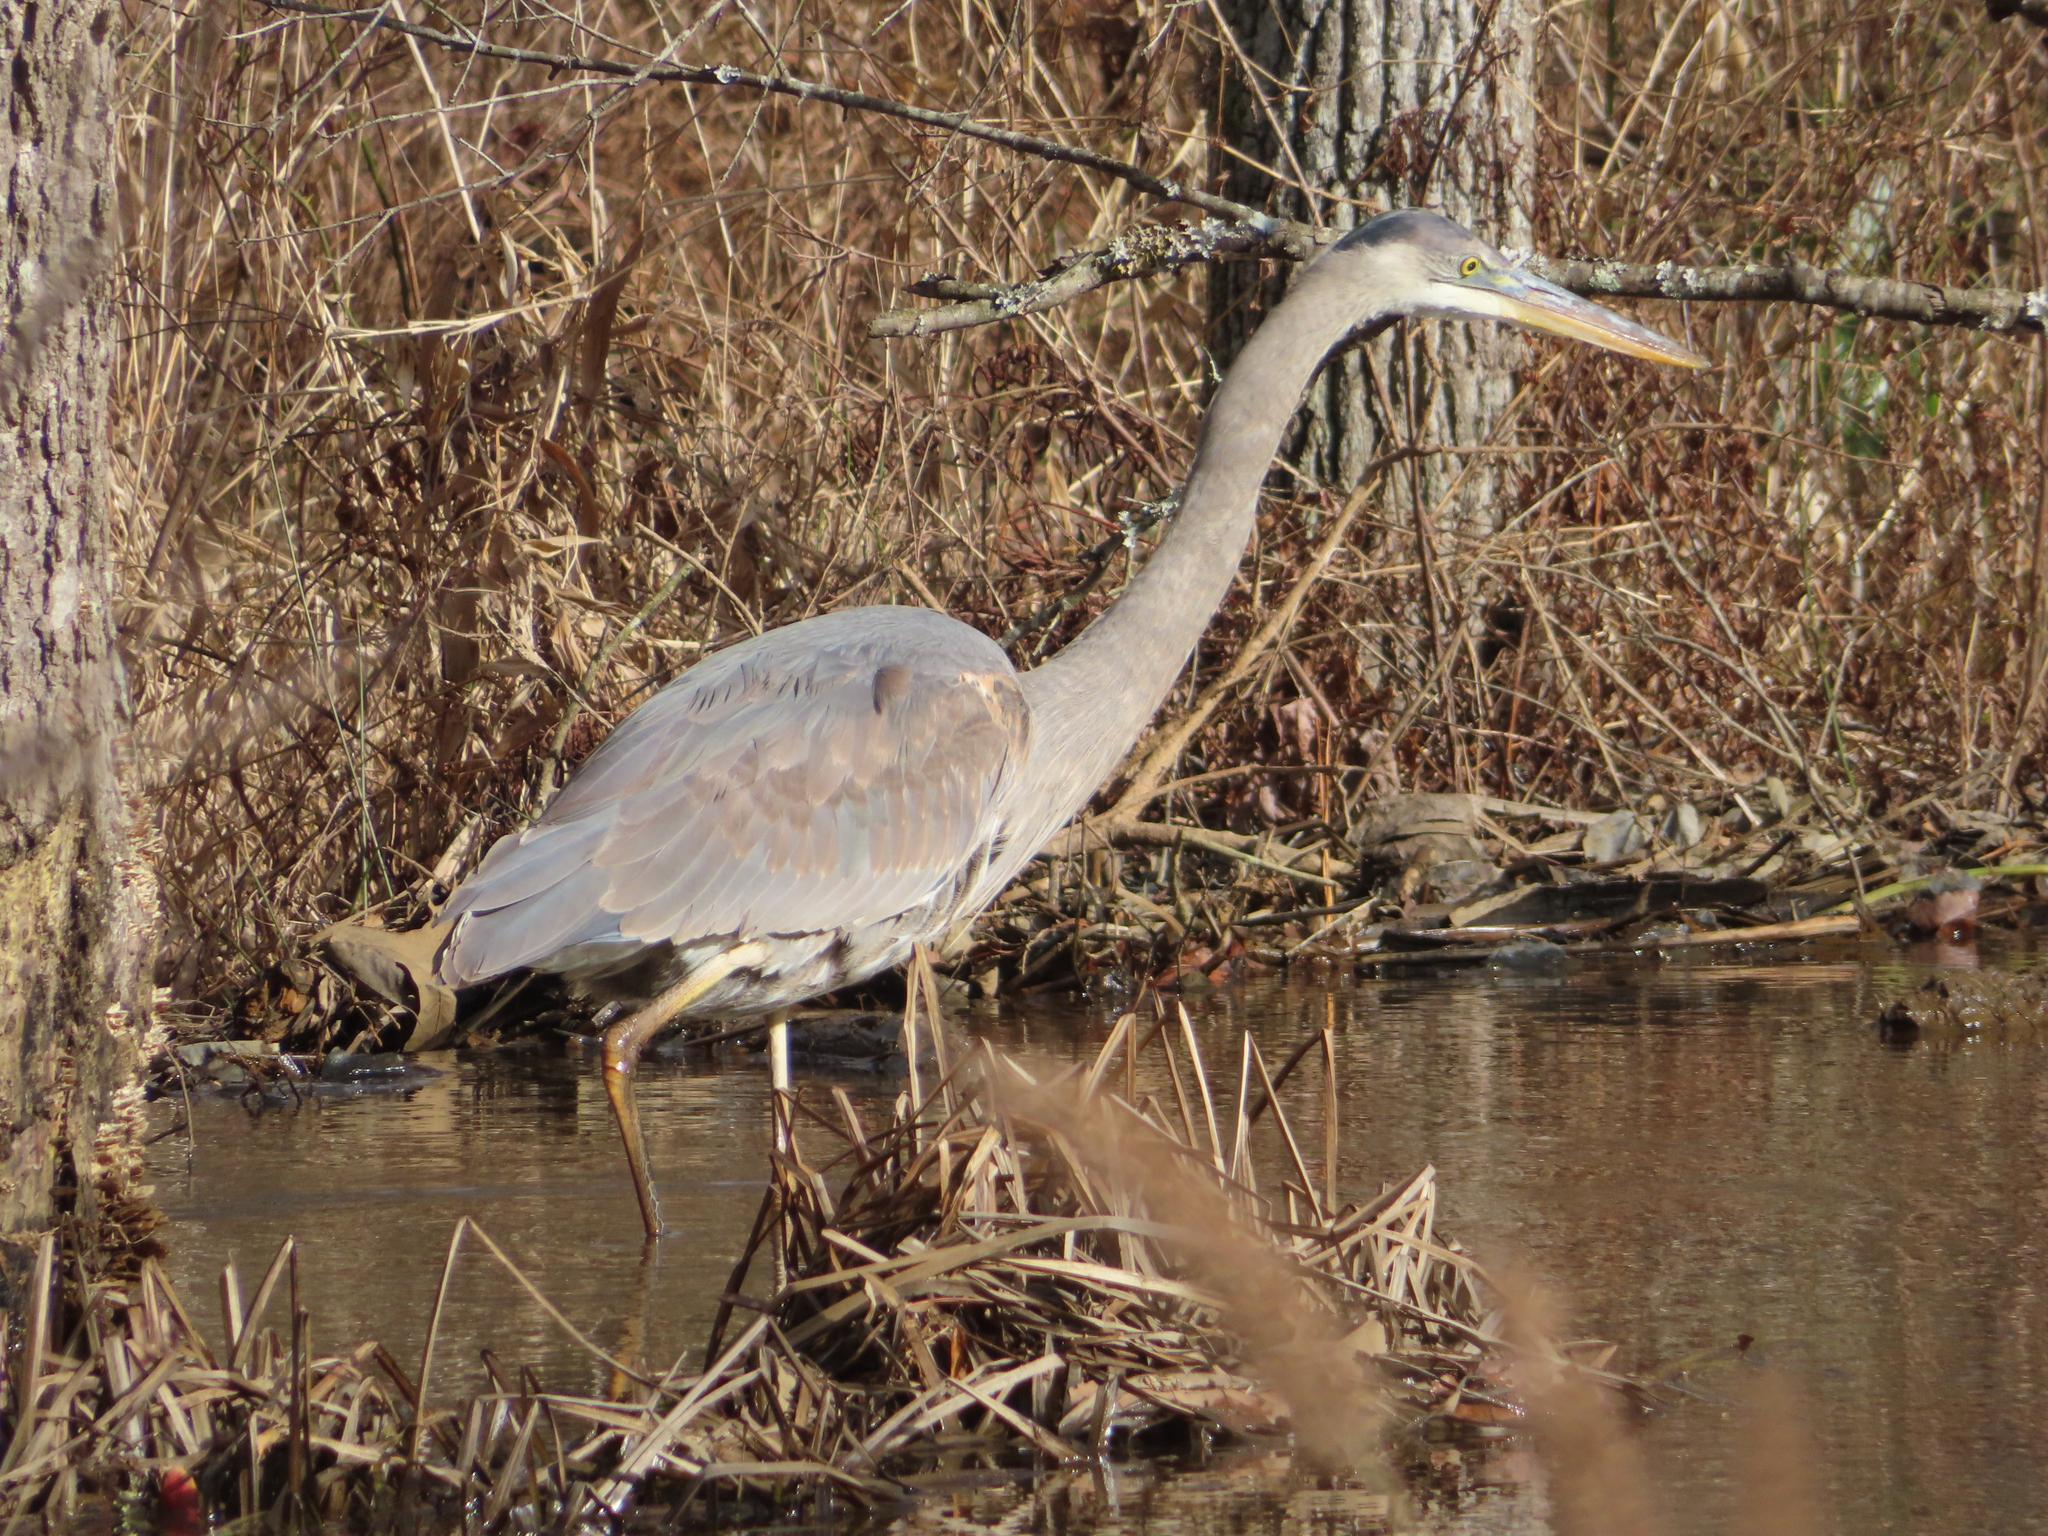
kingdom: Animalia
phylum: Chordata
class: Aves
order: Pelecaniformes
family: Ardeidae
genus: Ardea
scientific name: Ardea herodias
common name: Great blue heron
